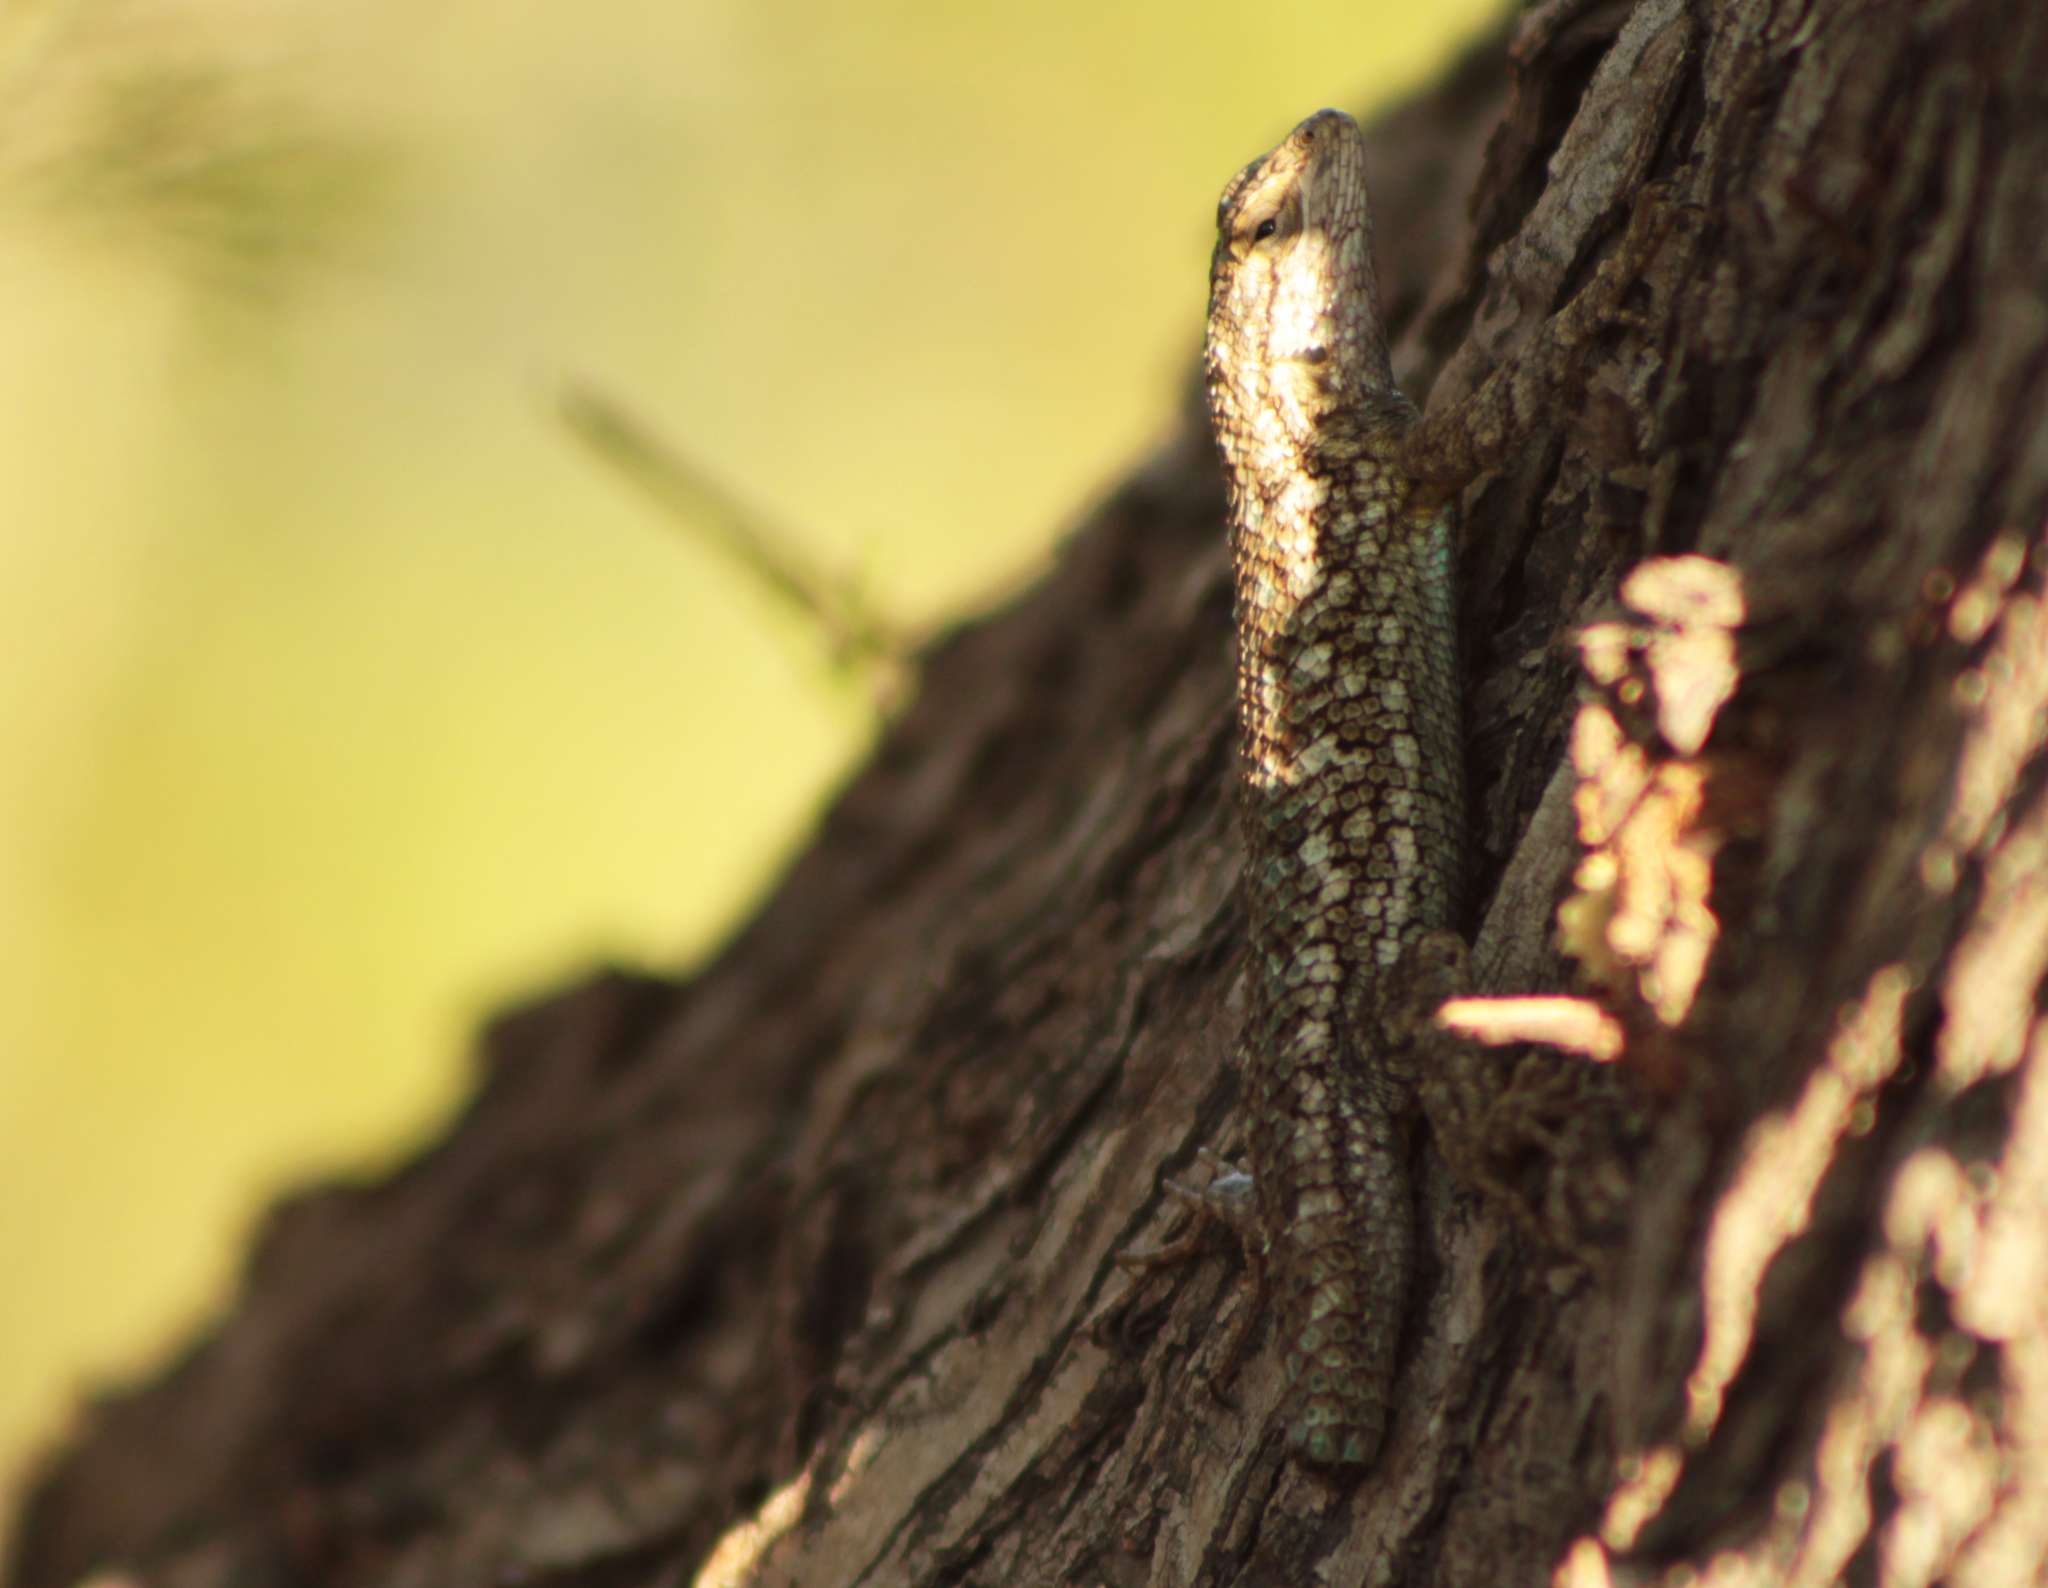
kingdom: Animalia
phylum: Chordata
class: Squamata
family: Phrynosomatidae
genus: Sceloporus
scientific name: Sceloporus occidentalis
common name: Western fence lizard
